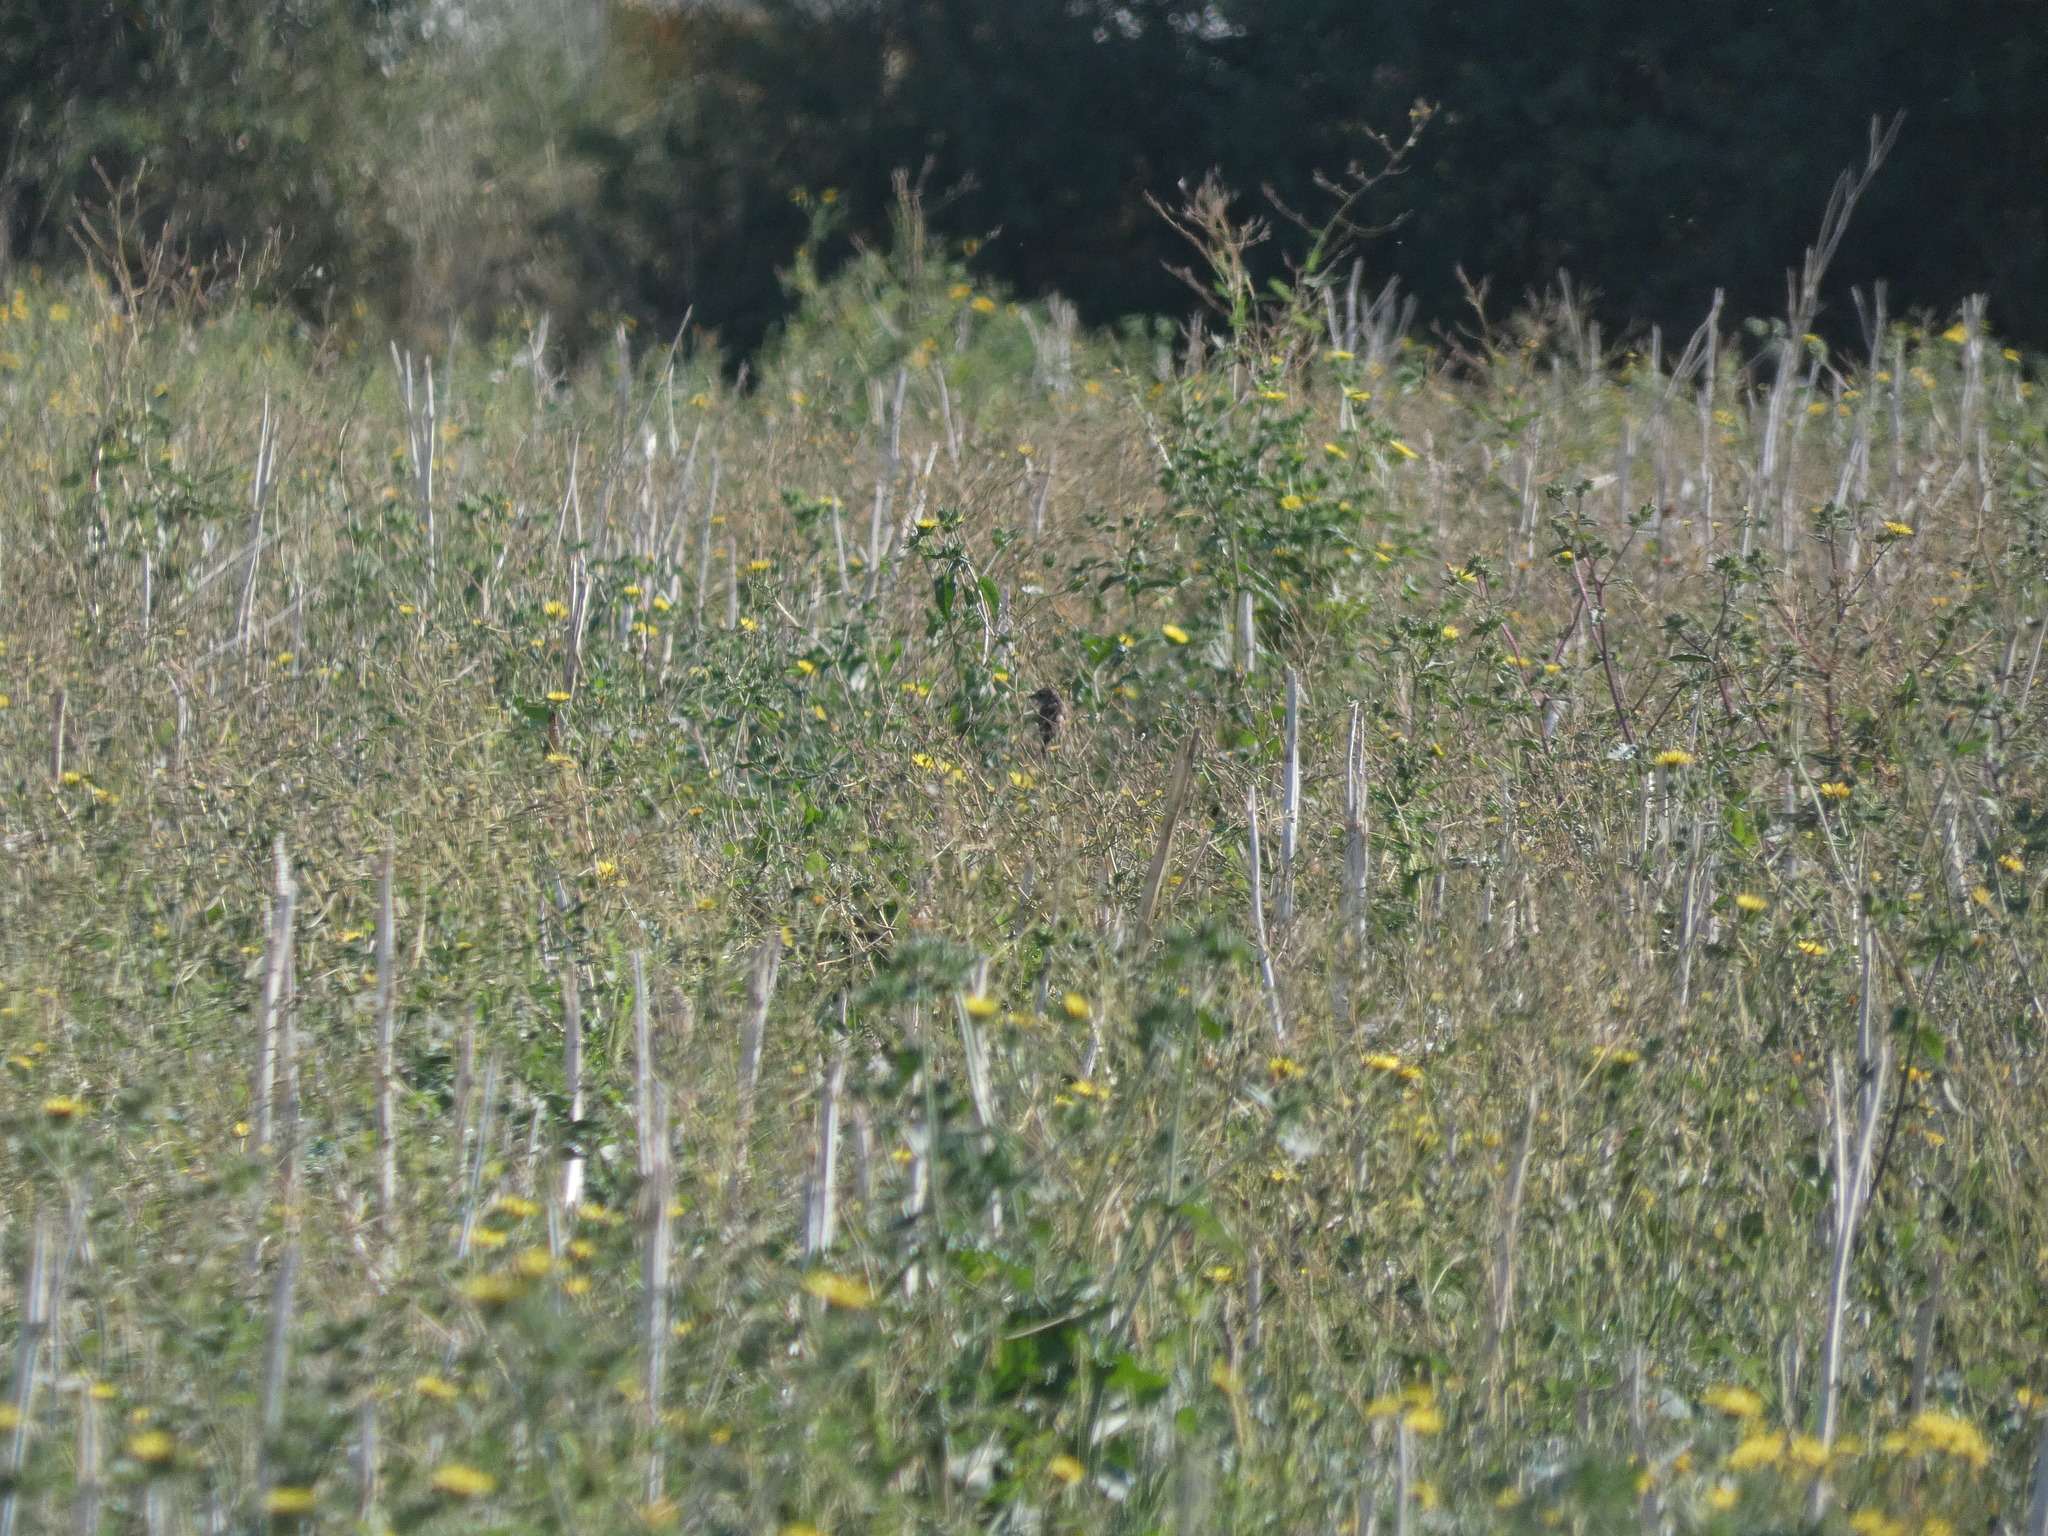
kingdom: Animalia
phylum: Chordata
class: Aves
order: Passeriformes
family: Muscicapidae
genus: Saxicola
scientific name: Saxicola rubicola
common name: European stonechat
